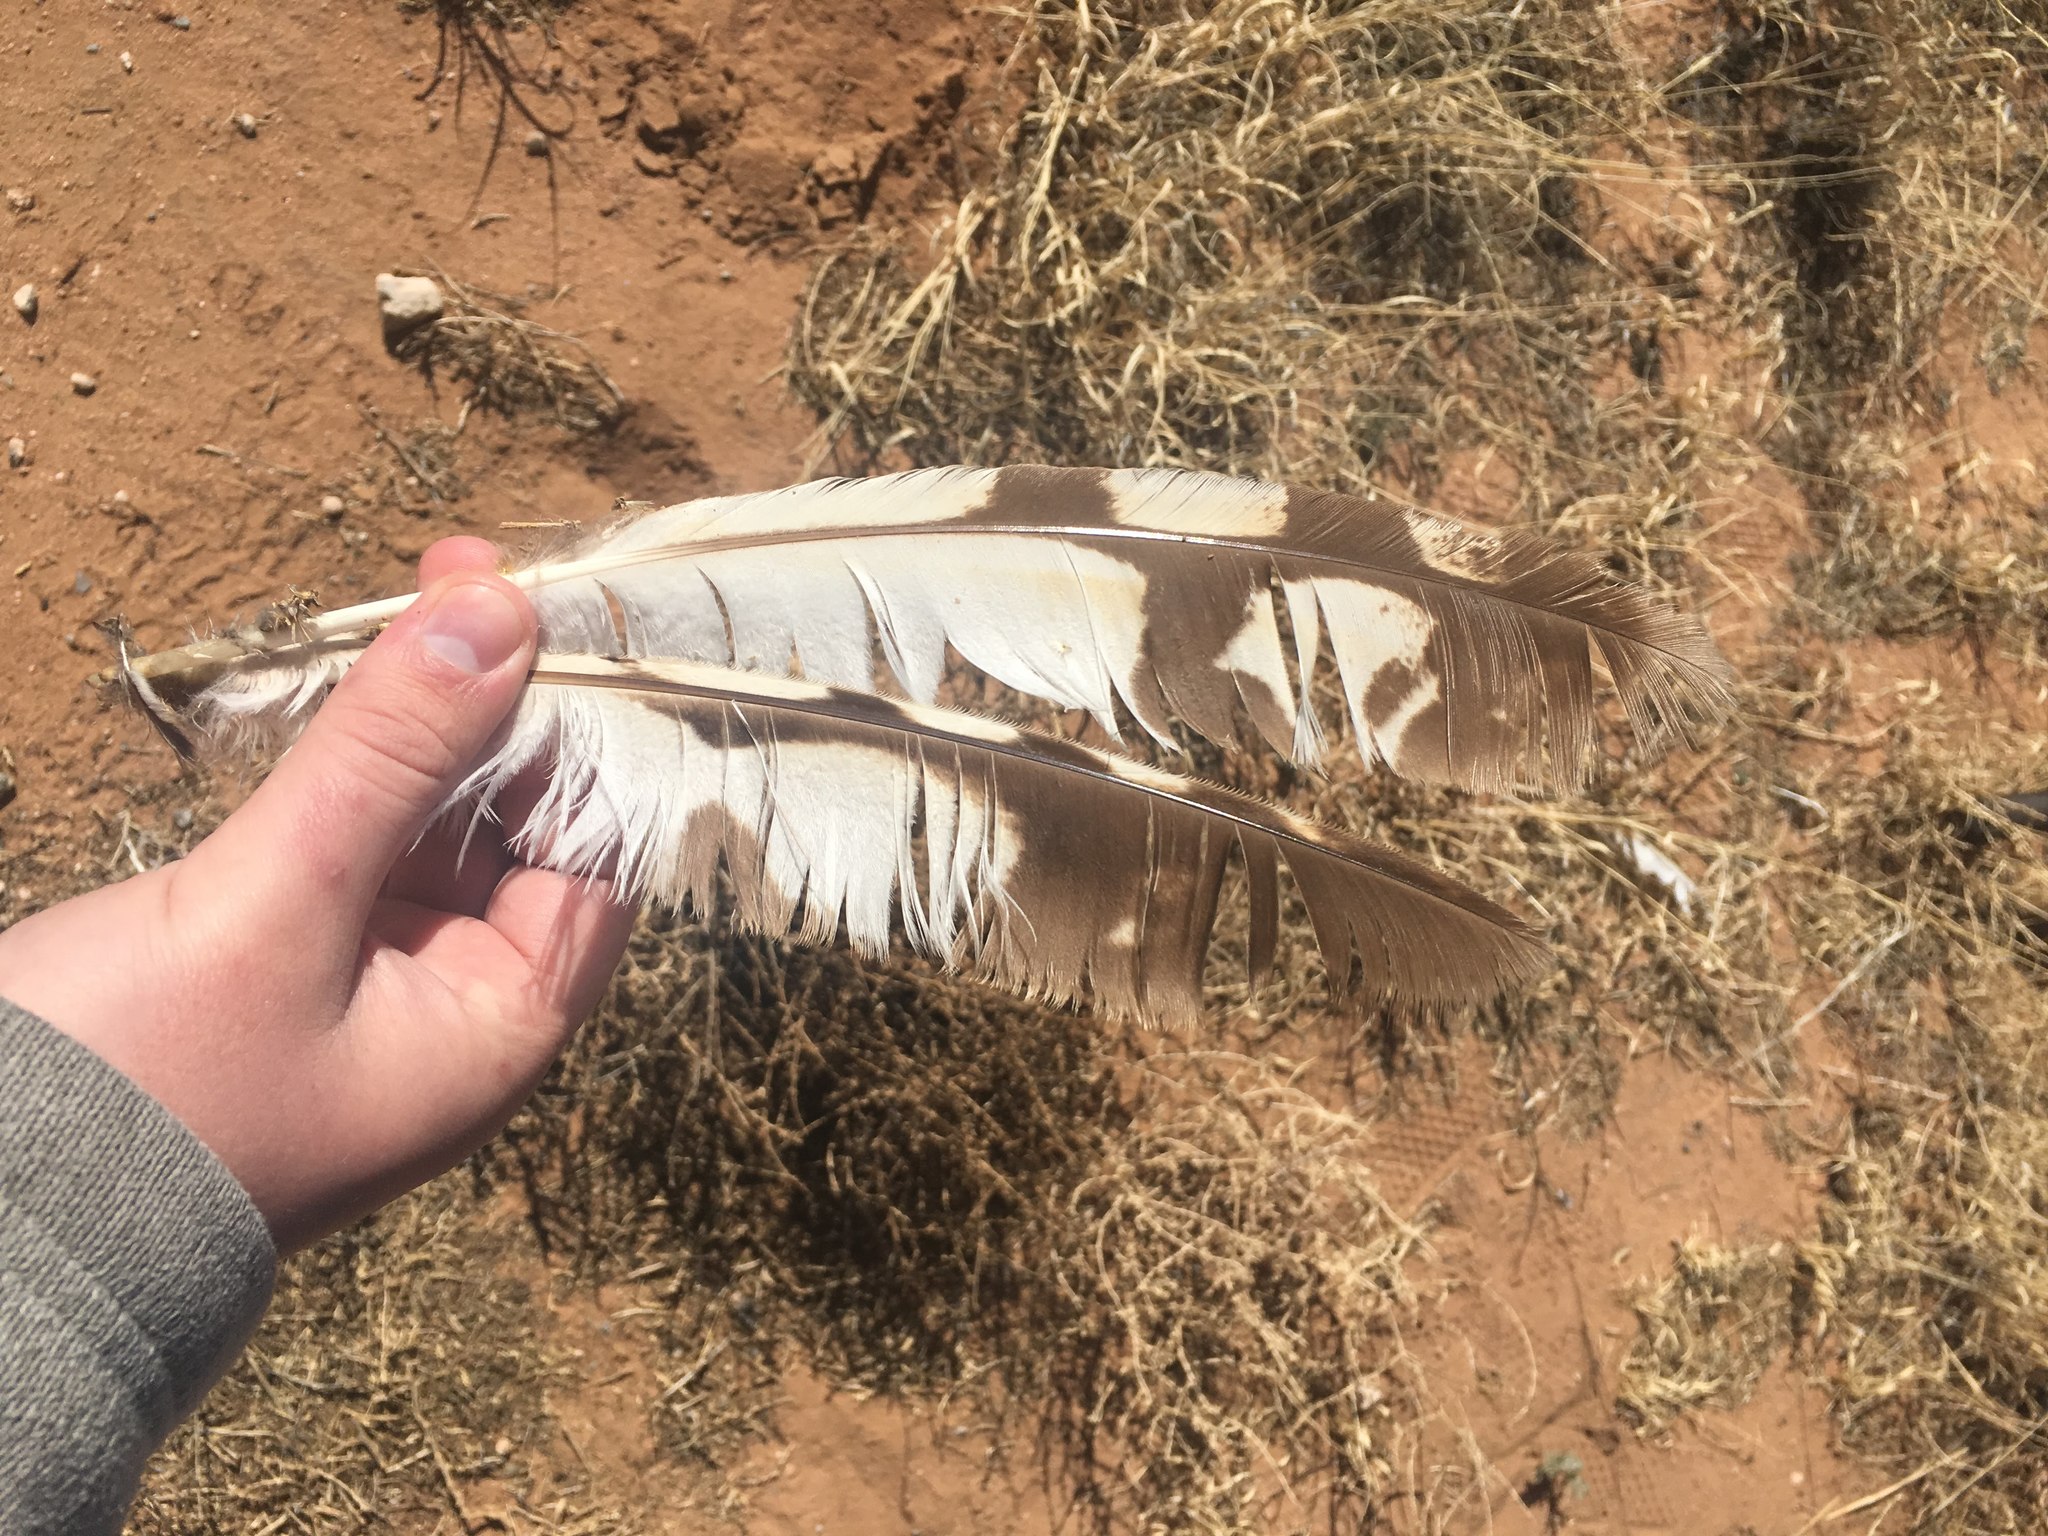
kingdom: Animalia
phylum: Chordata
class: Aves
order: Strigiformes
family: Strigidae
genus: Asio
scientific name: Asio flammeus
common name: Short-eared owl
